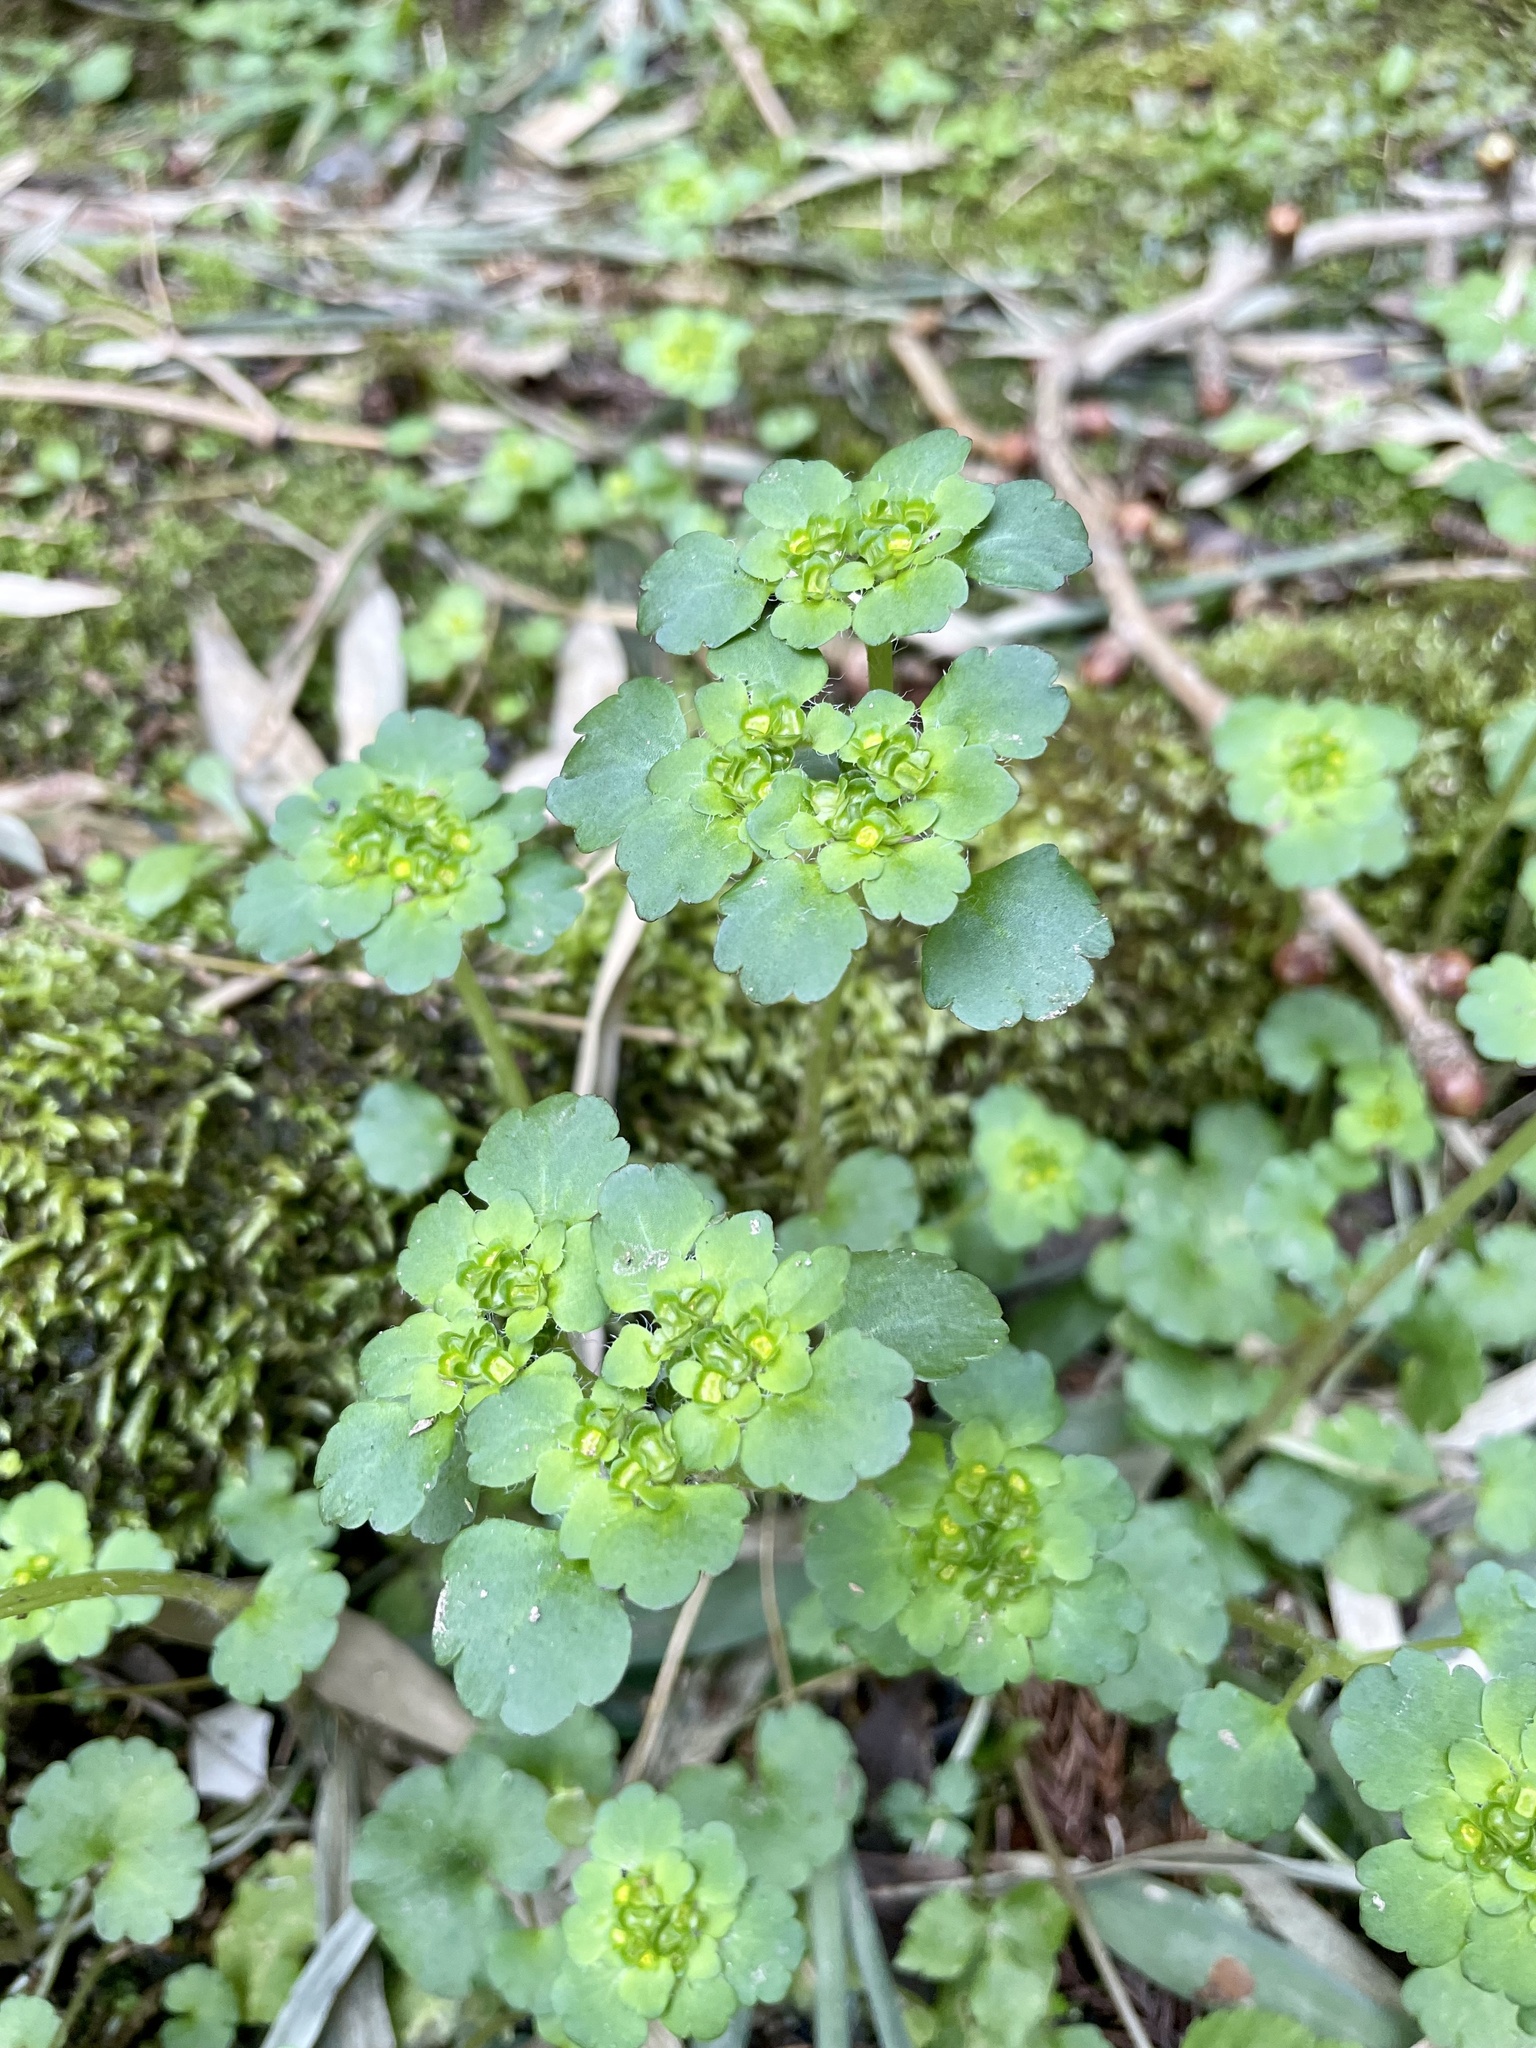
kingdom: Plantae
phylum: Tracheophyta
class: Magnoliopsida
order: Saxifragales
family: Saxifragaceae
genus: Chrysosplenium
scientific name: Chrysosplenium grayanum
